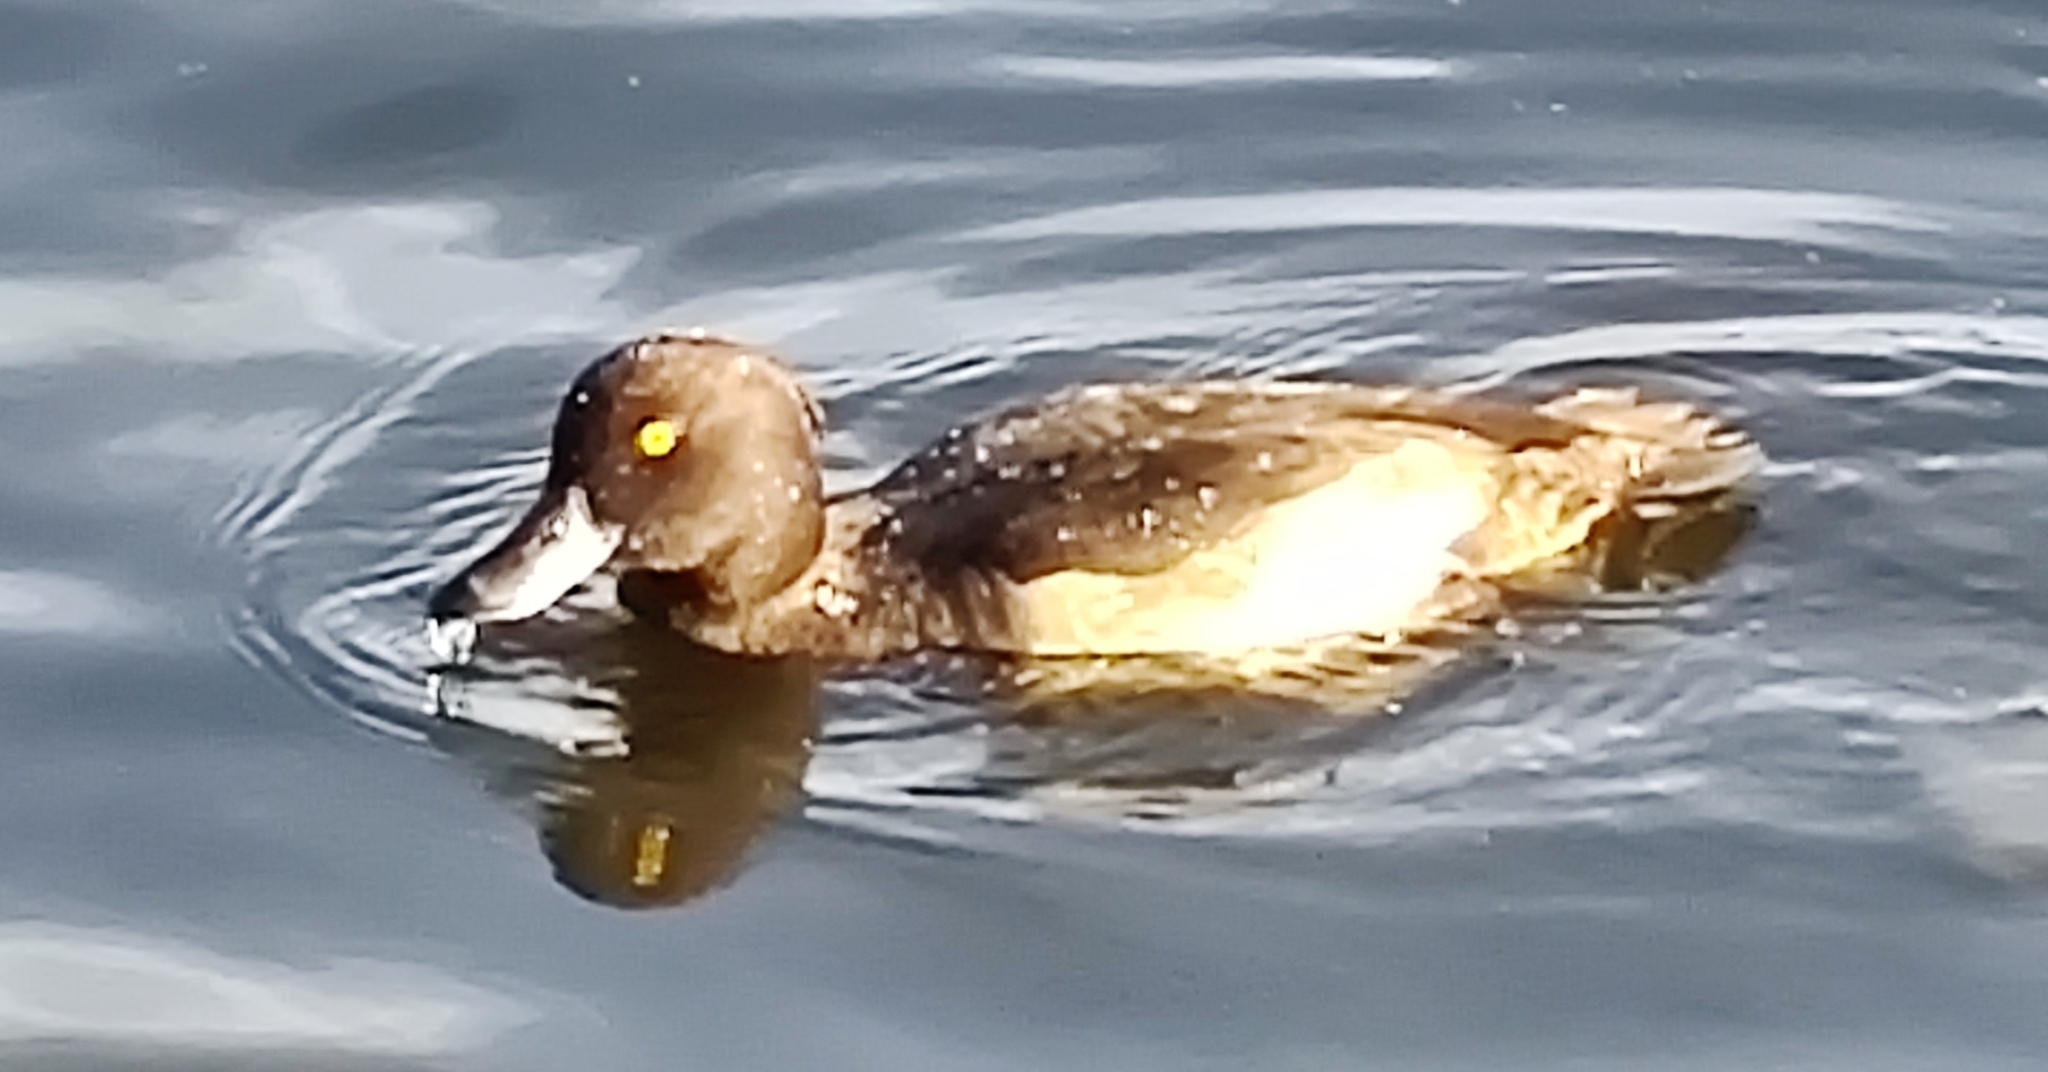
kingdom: Animalia
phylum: Chordata
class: Aves
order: Anseriformes
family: Anatidae
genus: Aythya
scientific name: Aythya fuligula
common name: Tufted duck
